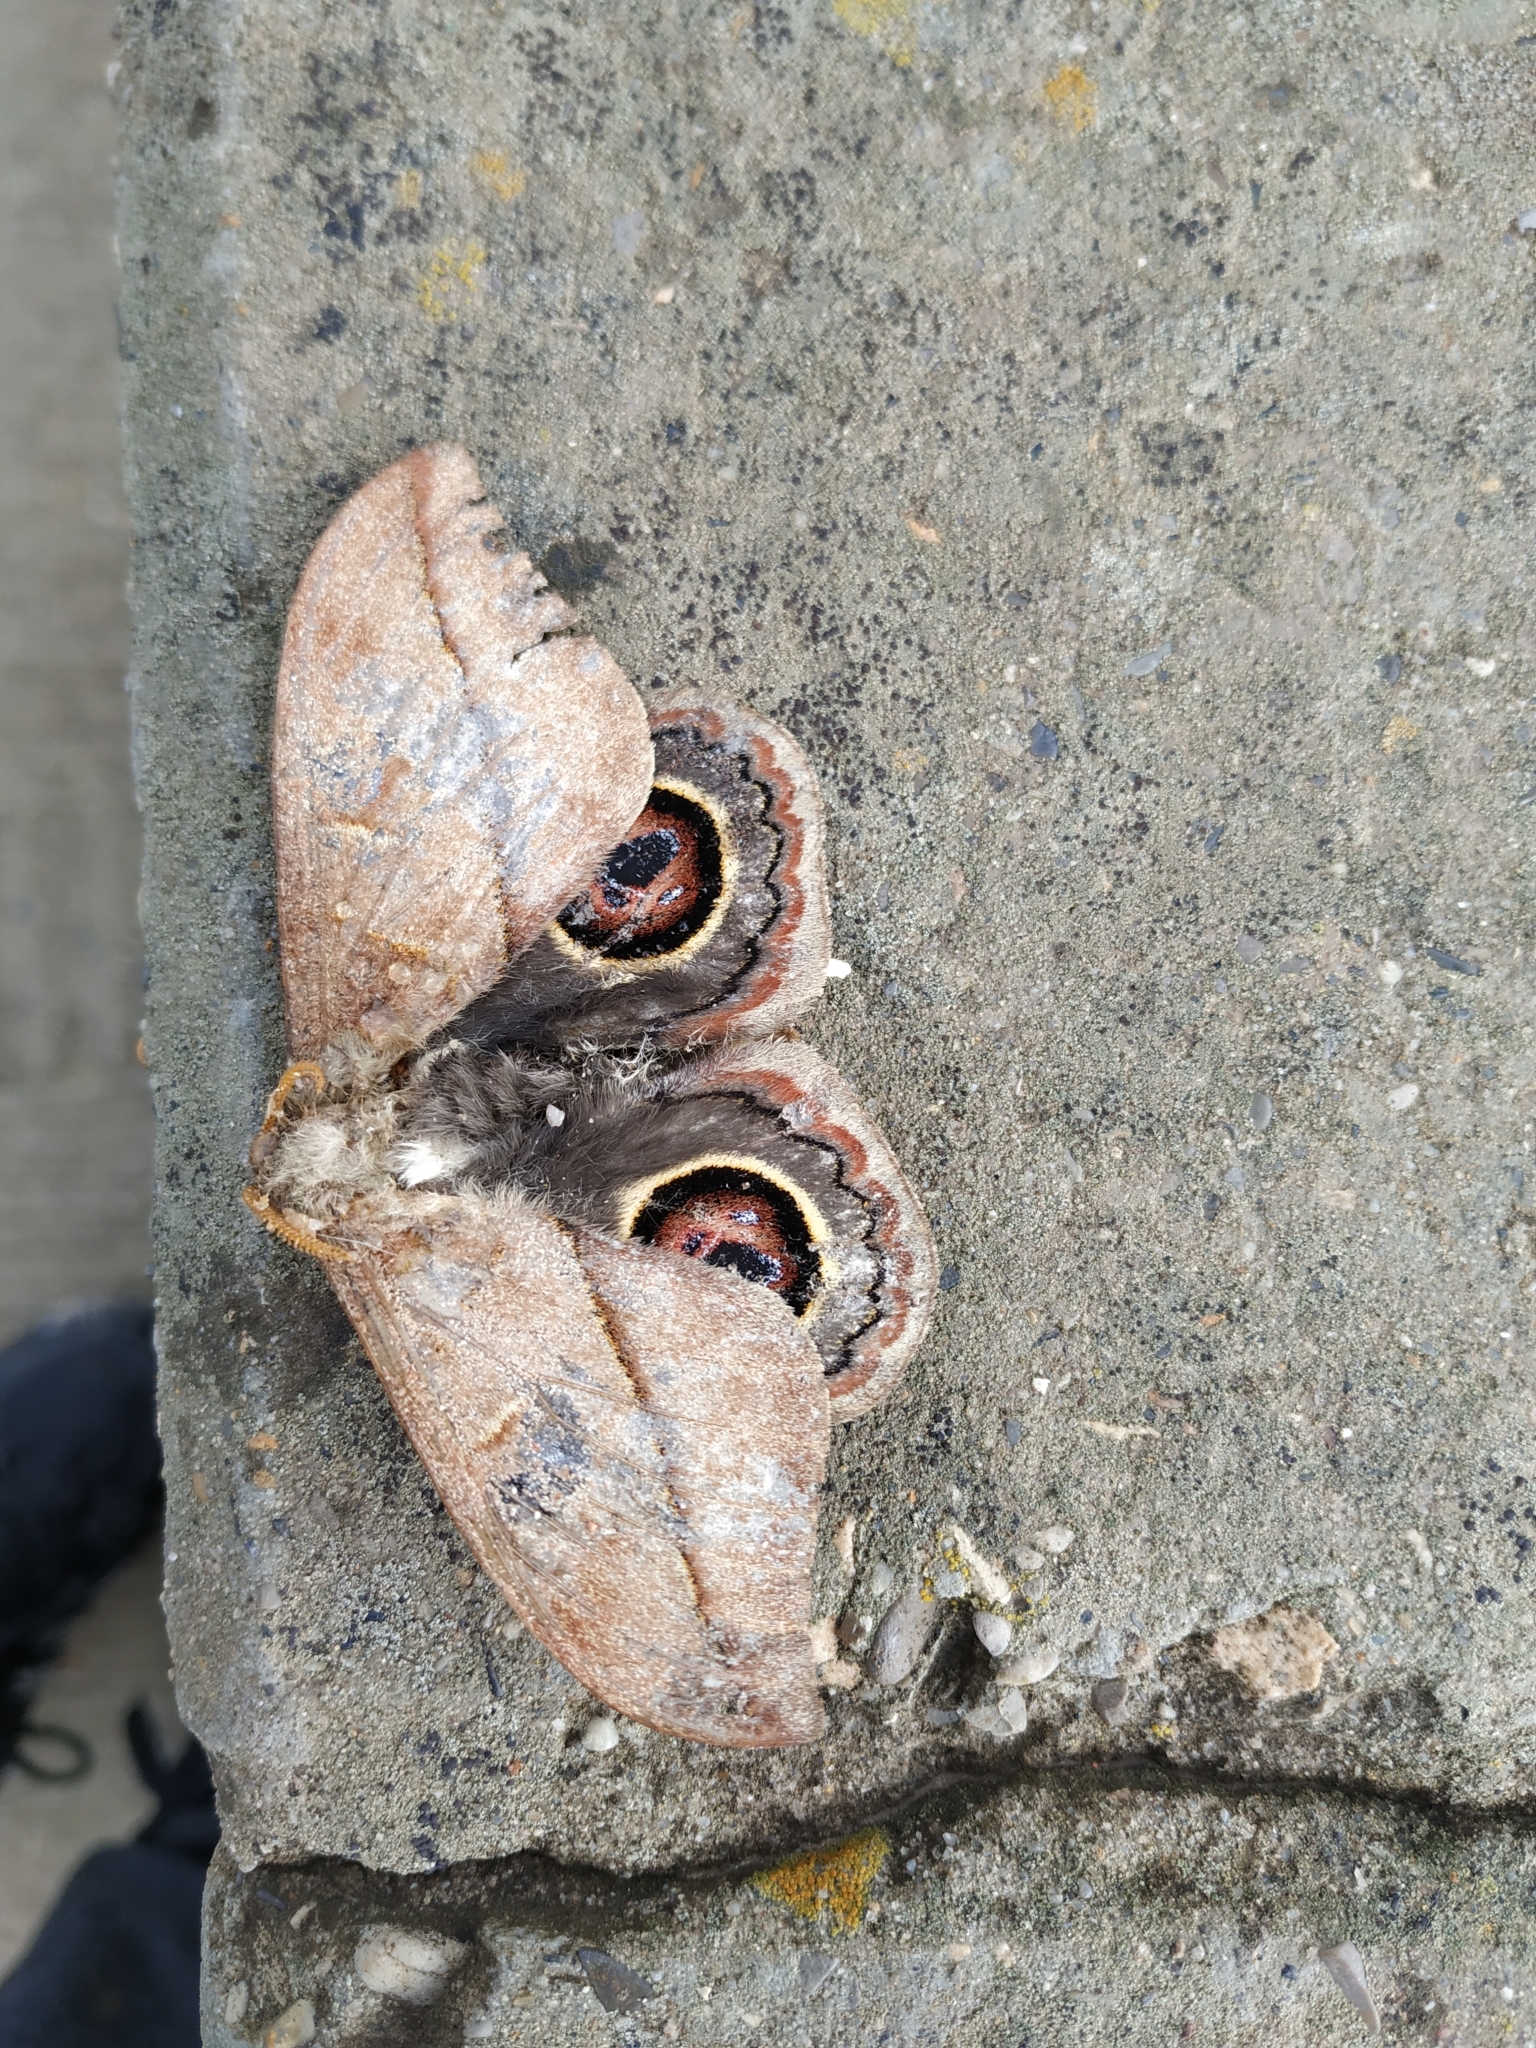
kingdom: Animalia
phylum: Arthropoda
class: Insecta
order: Lepidoptera
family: Saturniidae
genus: Leucanella
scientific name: Leucanella nyctimene
